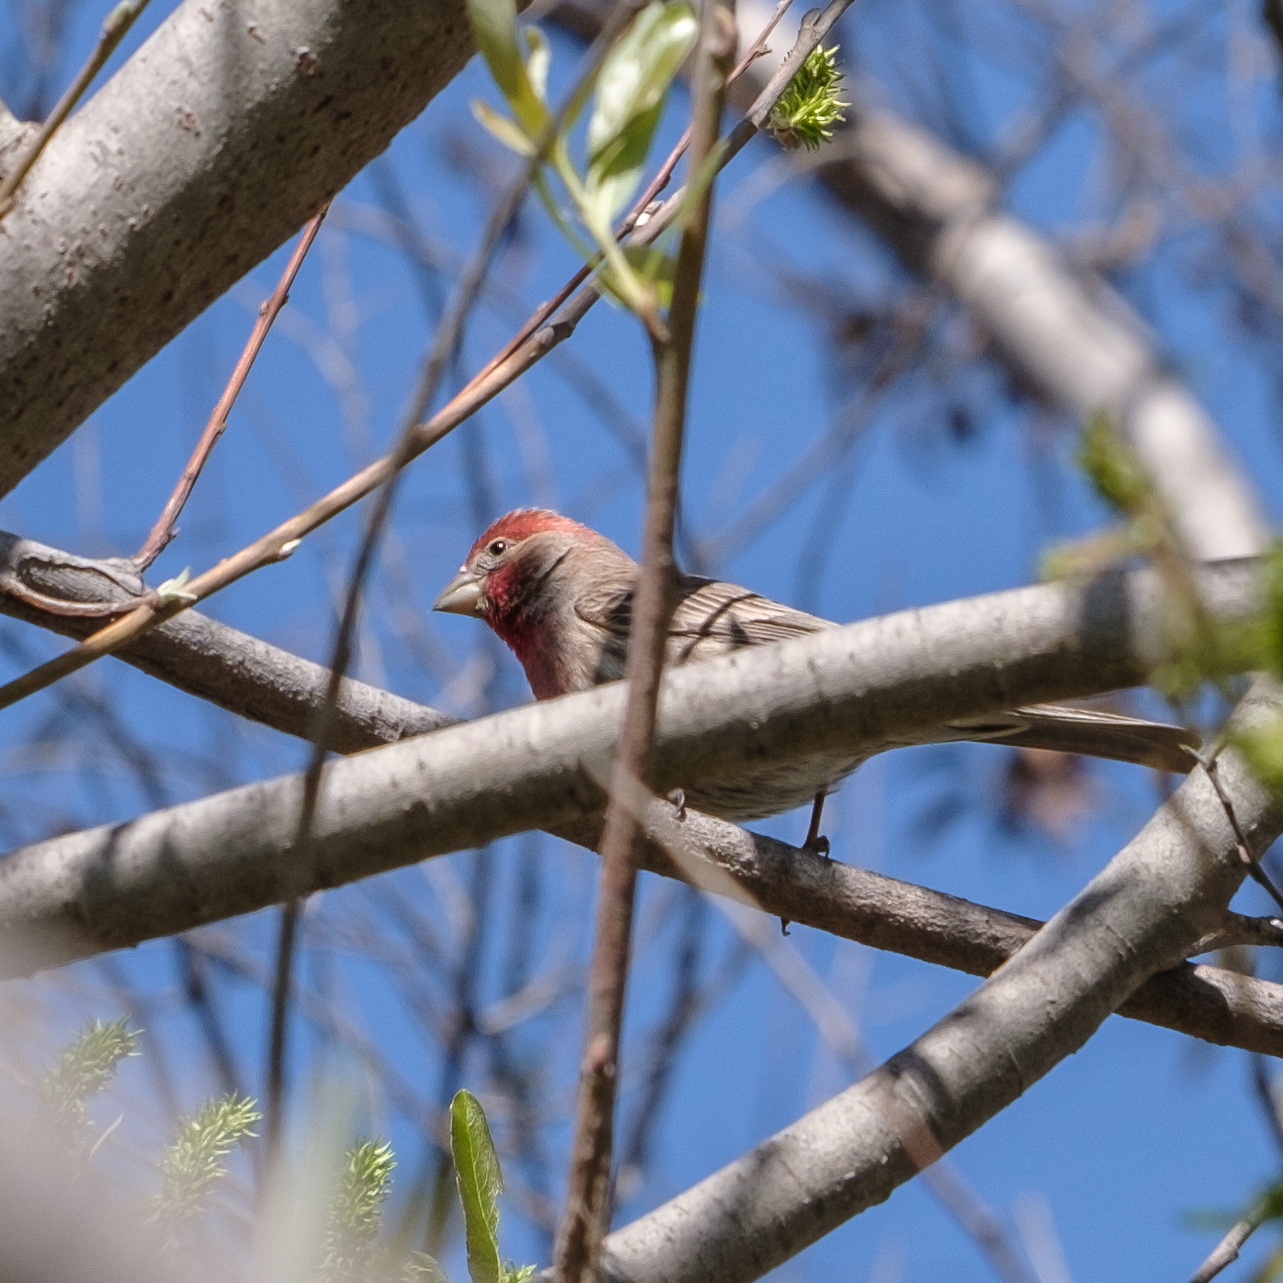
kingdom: Animalia
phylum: Chordata
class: Aves
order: Passeriformes
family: Fringillidae
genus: Haemorhous
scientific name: Haemorhous mexicanus
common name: House finch
